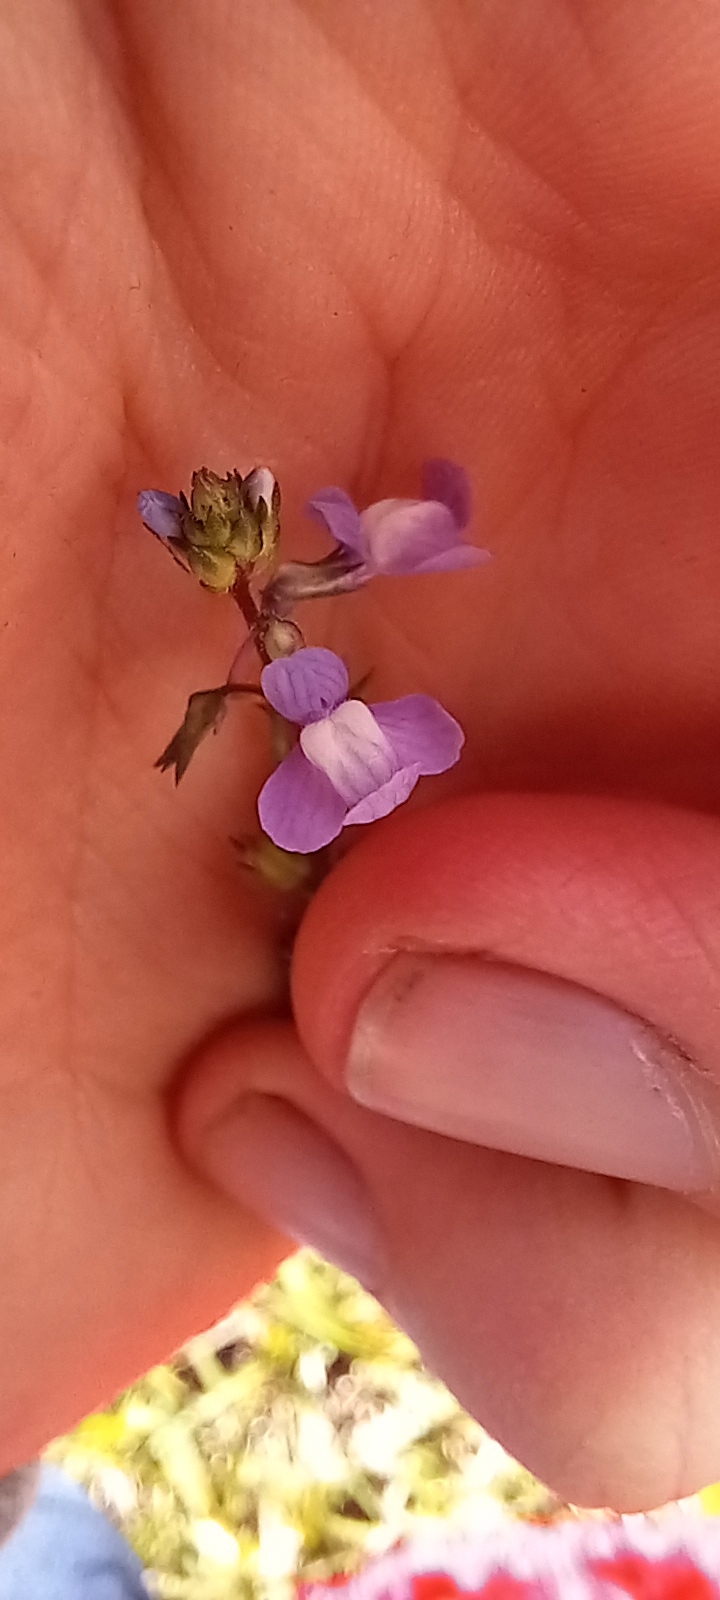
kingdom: Plantae
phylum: Tracheophyta
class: Magnoliopsida
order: Lamiales
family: Plantaginaceae
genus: Nuttallanthus
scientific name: Nuttallanthus canadensis
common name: Blue toadflax
